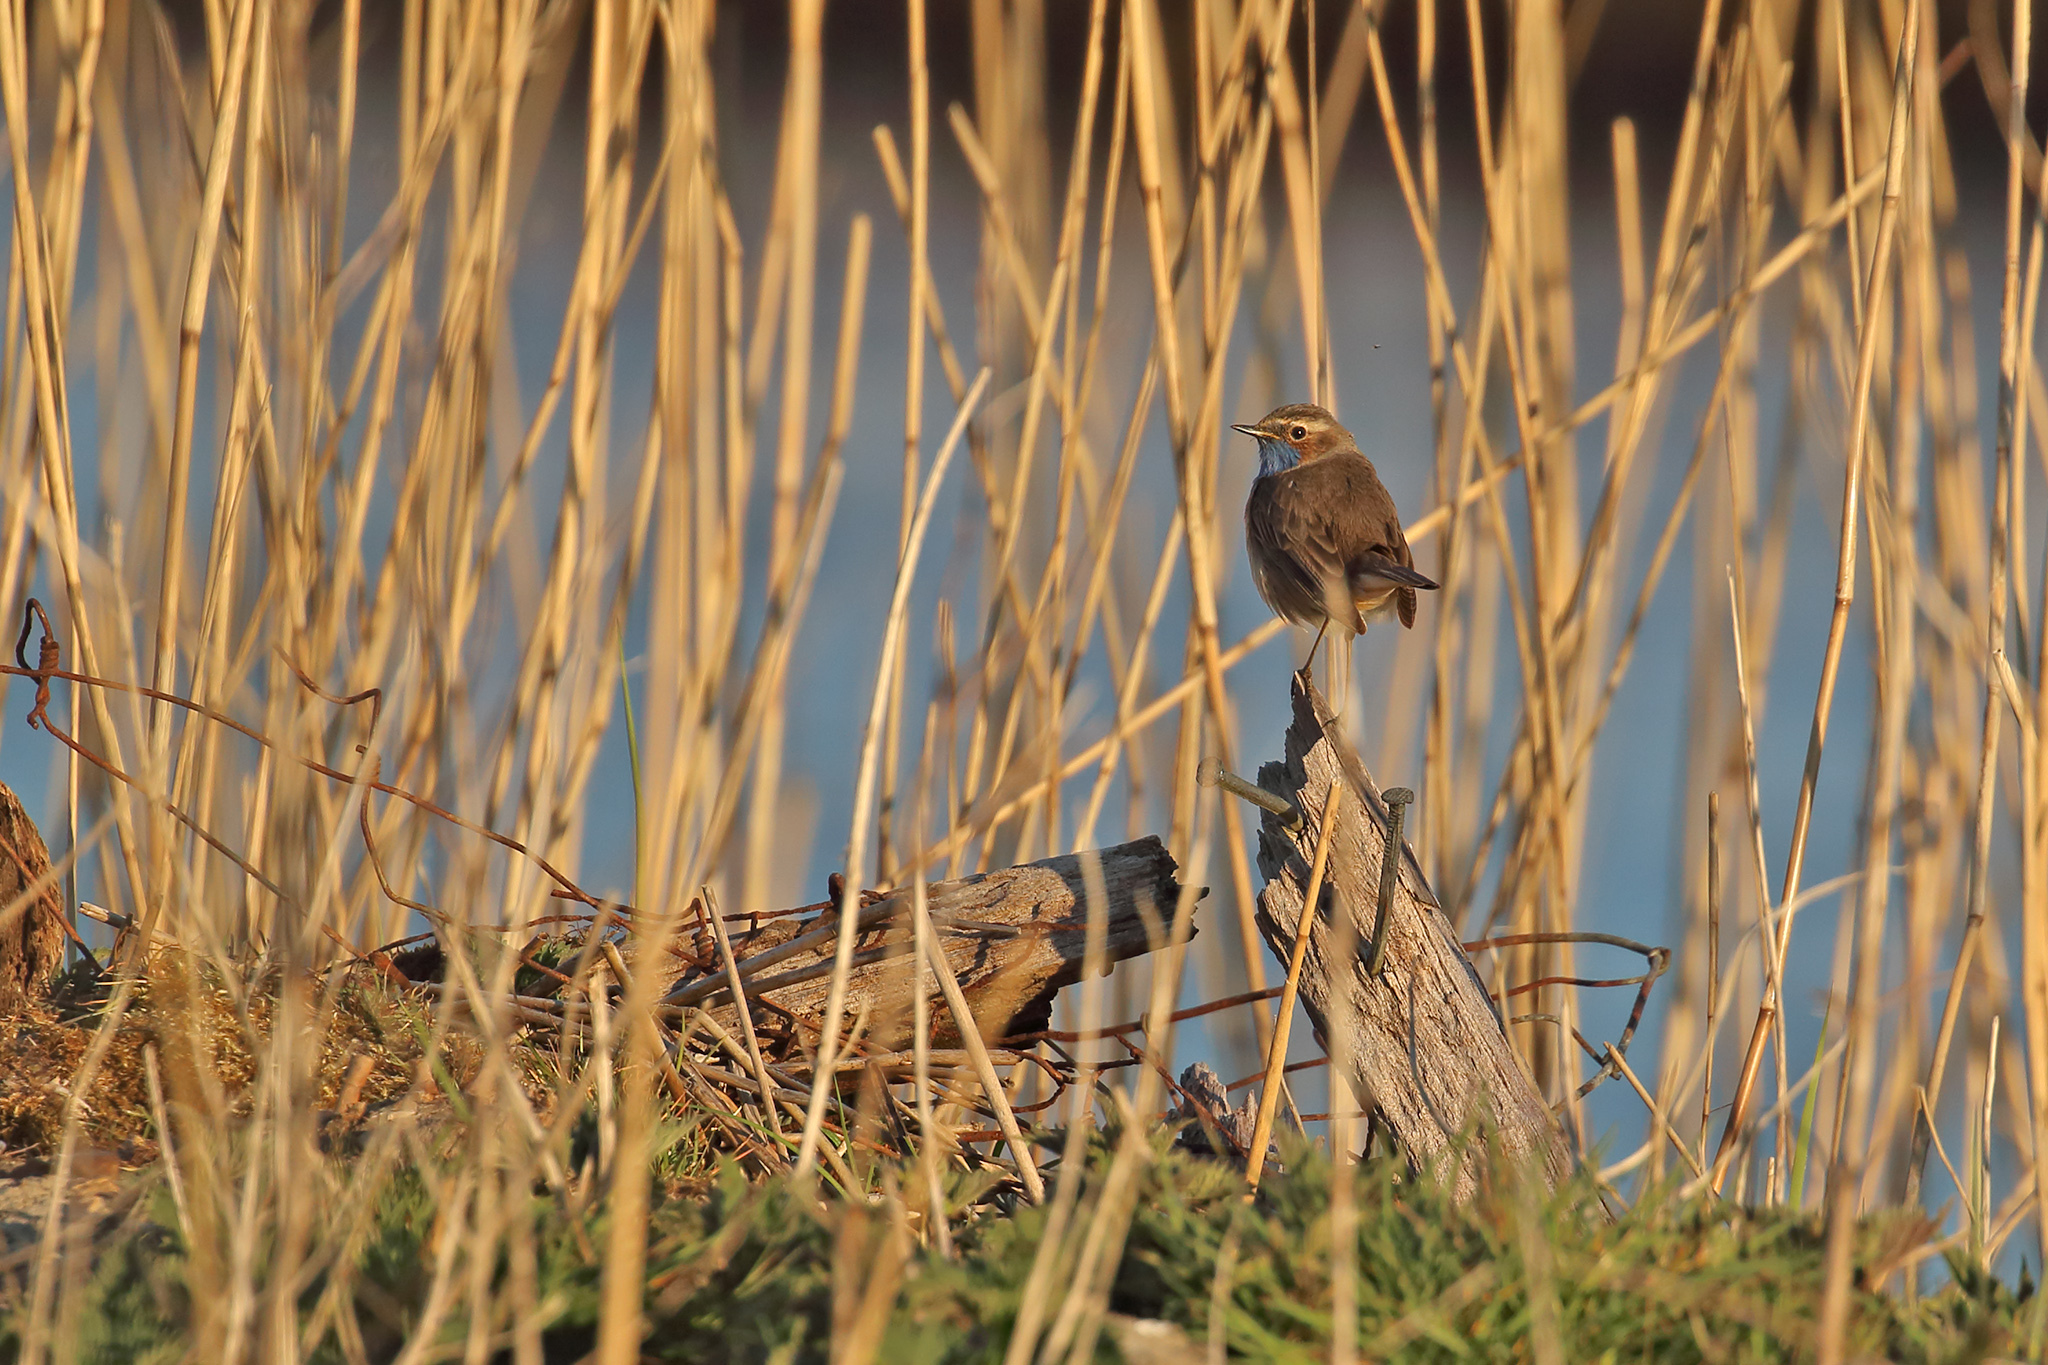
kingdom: Animalia
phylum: Chordata
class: Aves
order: Passeriformes
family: Muscicapidae
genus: Luscinia
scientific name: Luscinia svecica
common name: Bluethroat
